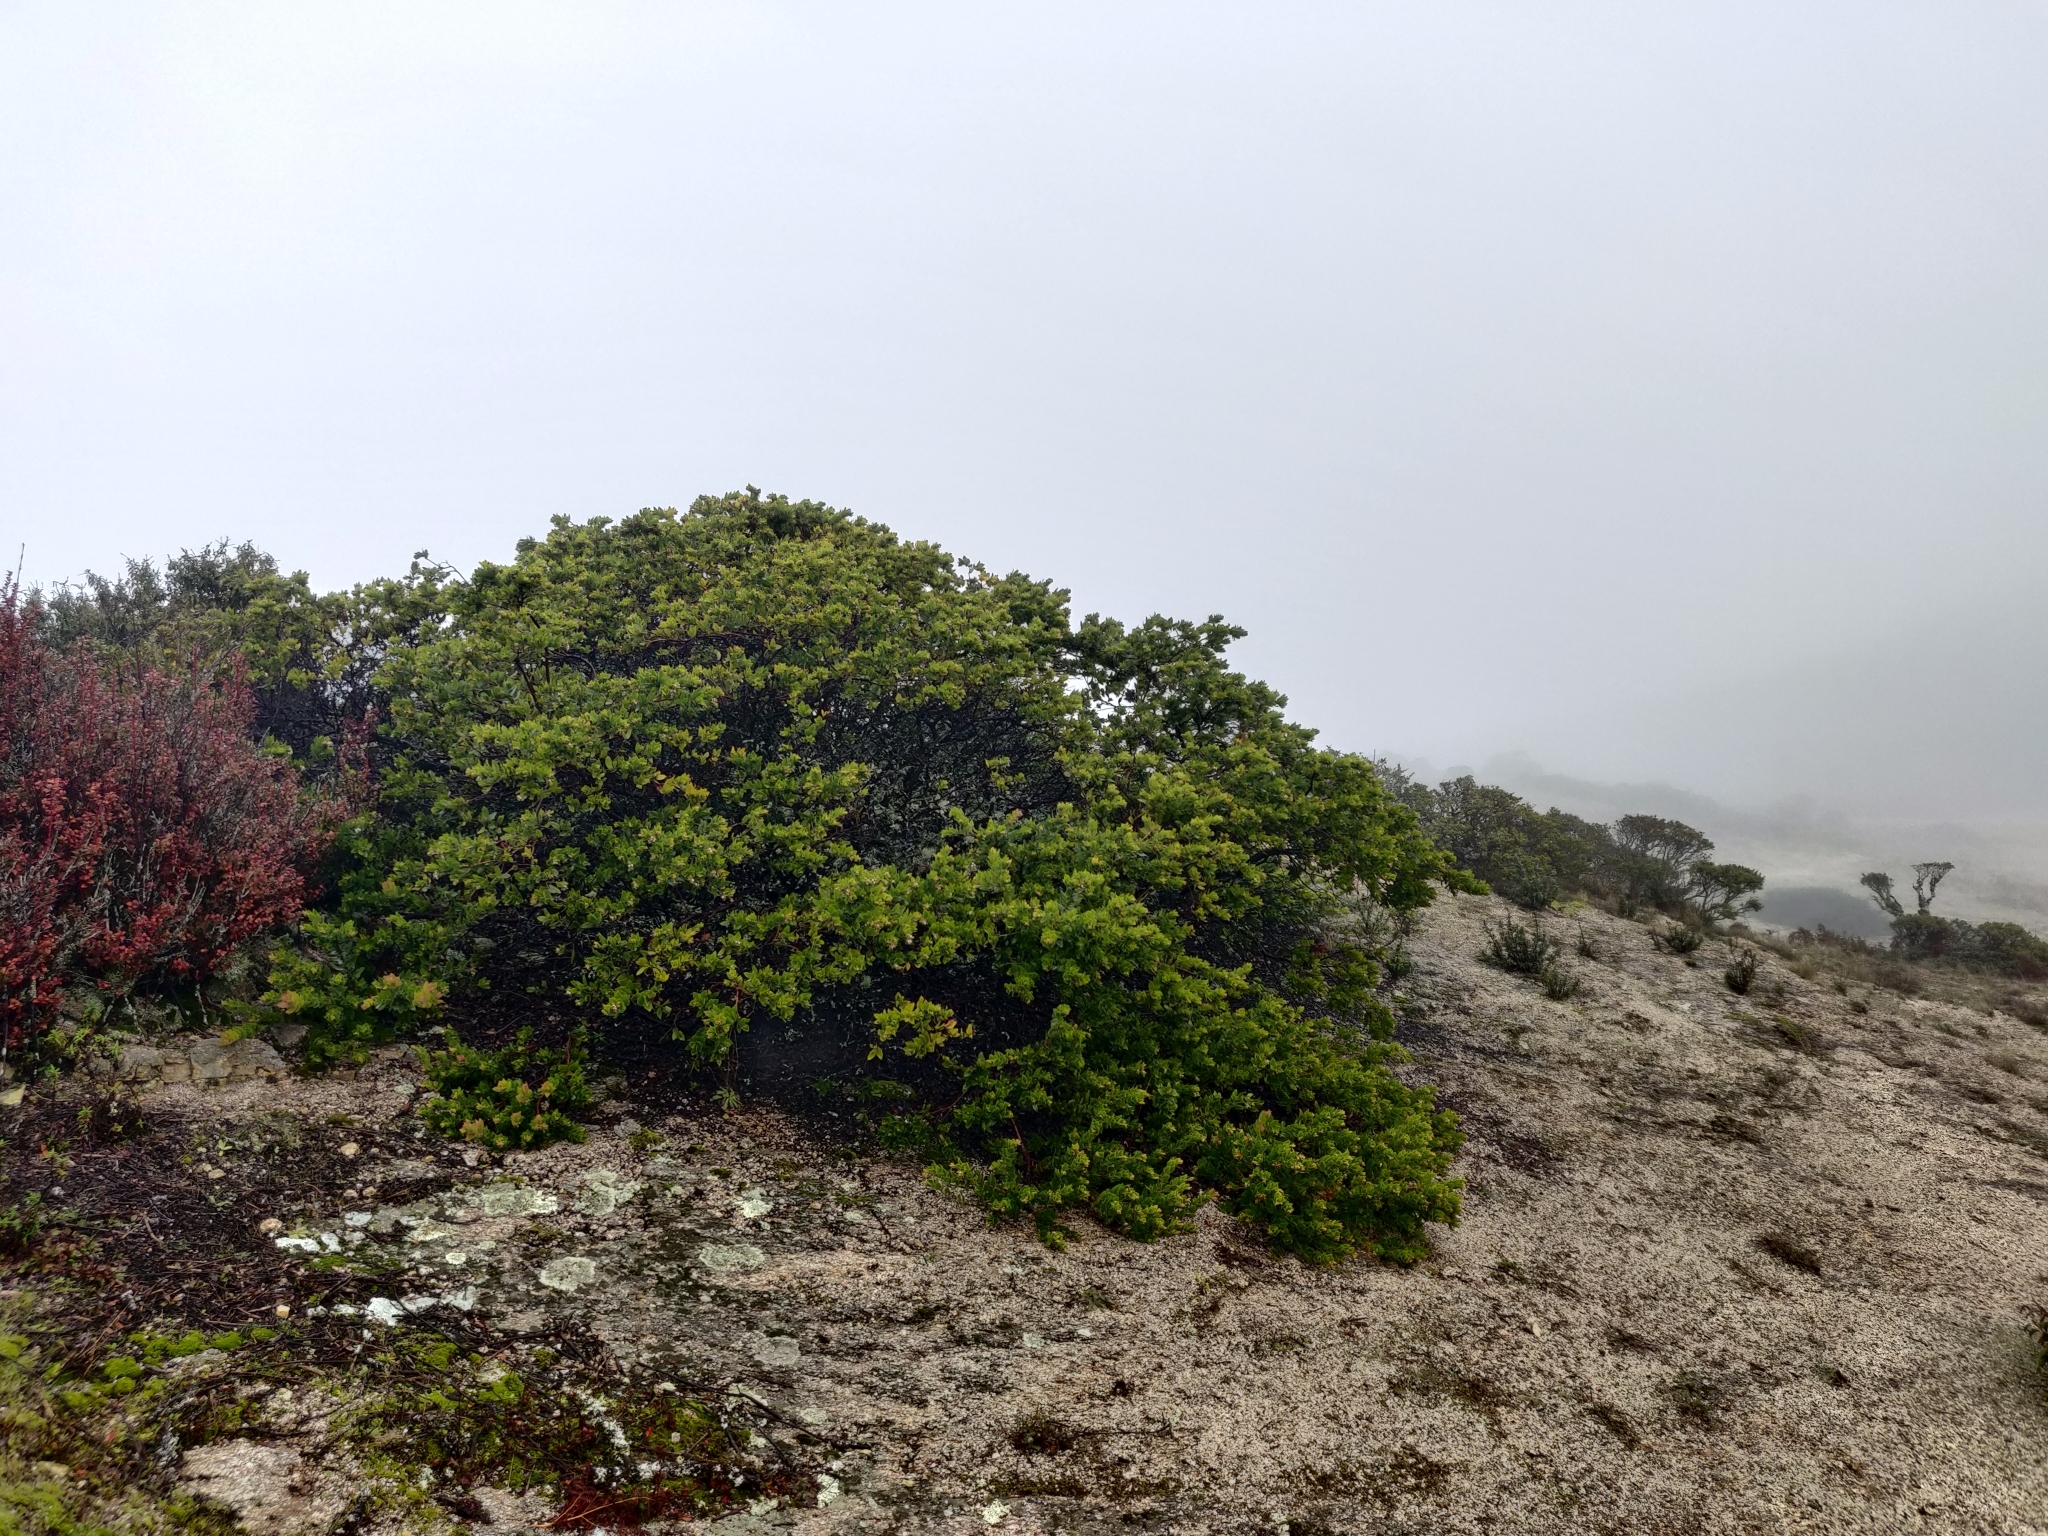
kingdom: Plantae
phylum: Tracheophyta
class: Magnoliopsida
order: Ericales
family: Ericaceae
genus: Arctostaphylos
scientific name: Arctostaphylos montaraensis
